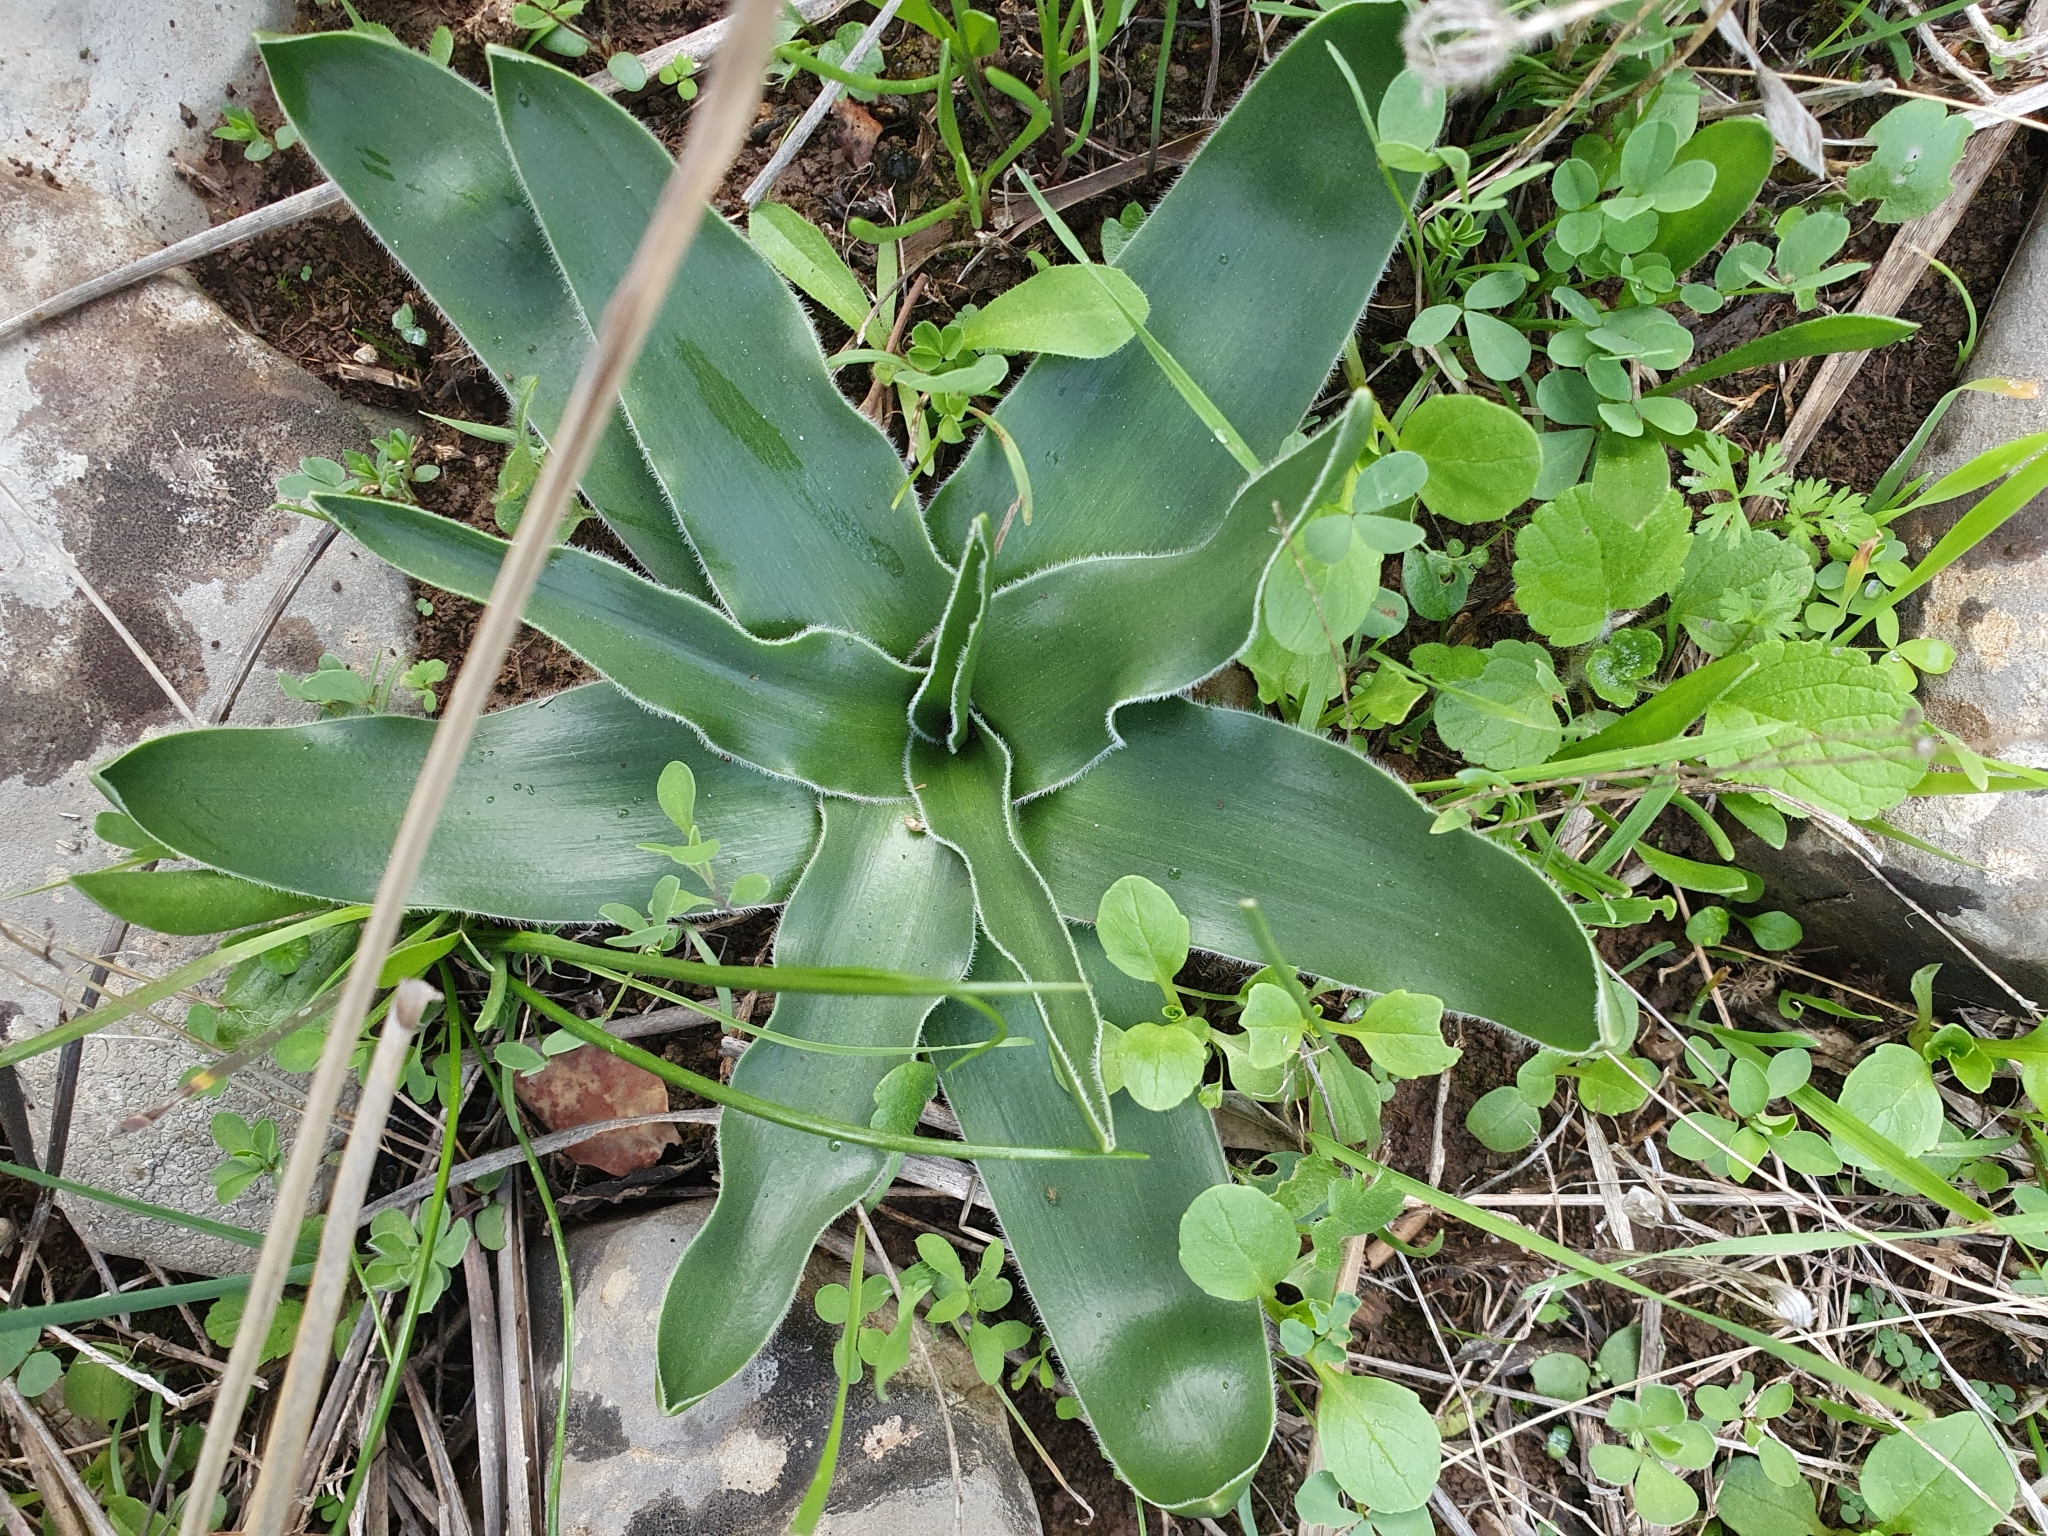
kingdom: Plantae
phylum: Tracheophyta
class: Liliopsida
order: Asparagales
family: Asparagaceae
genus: Scilla
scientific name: Scilla peruviana
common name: Portuguese squill
